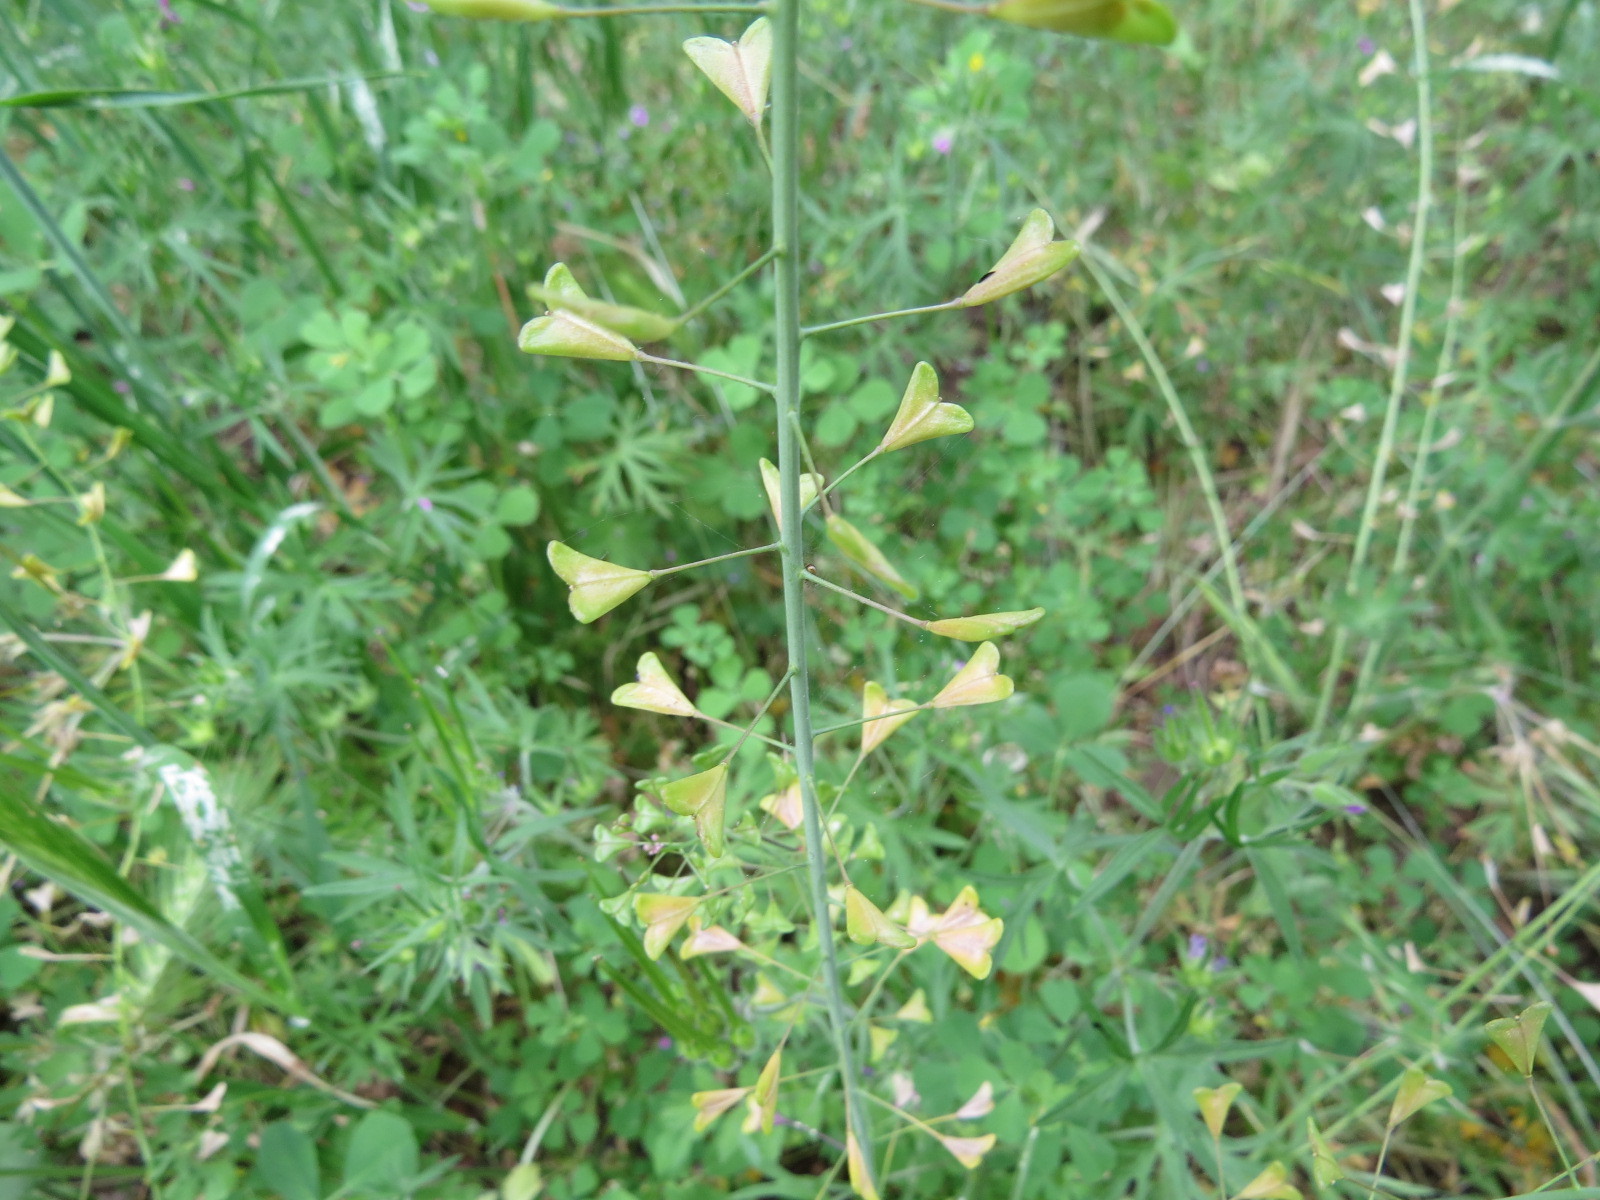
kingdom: Plantae
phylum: Tracheophyta
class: Magnoliopsida
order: Brassicales
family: Brassicaceae
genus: Capsella
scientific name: Capsella bursa-pastoris
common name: Shepherd's purse
